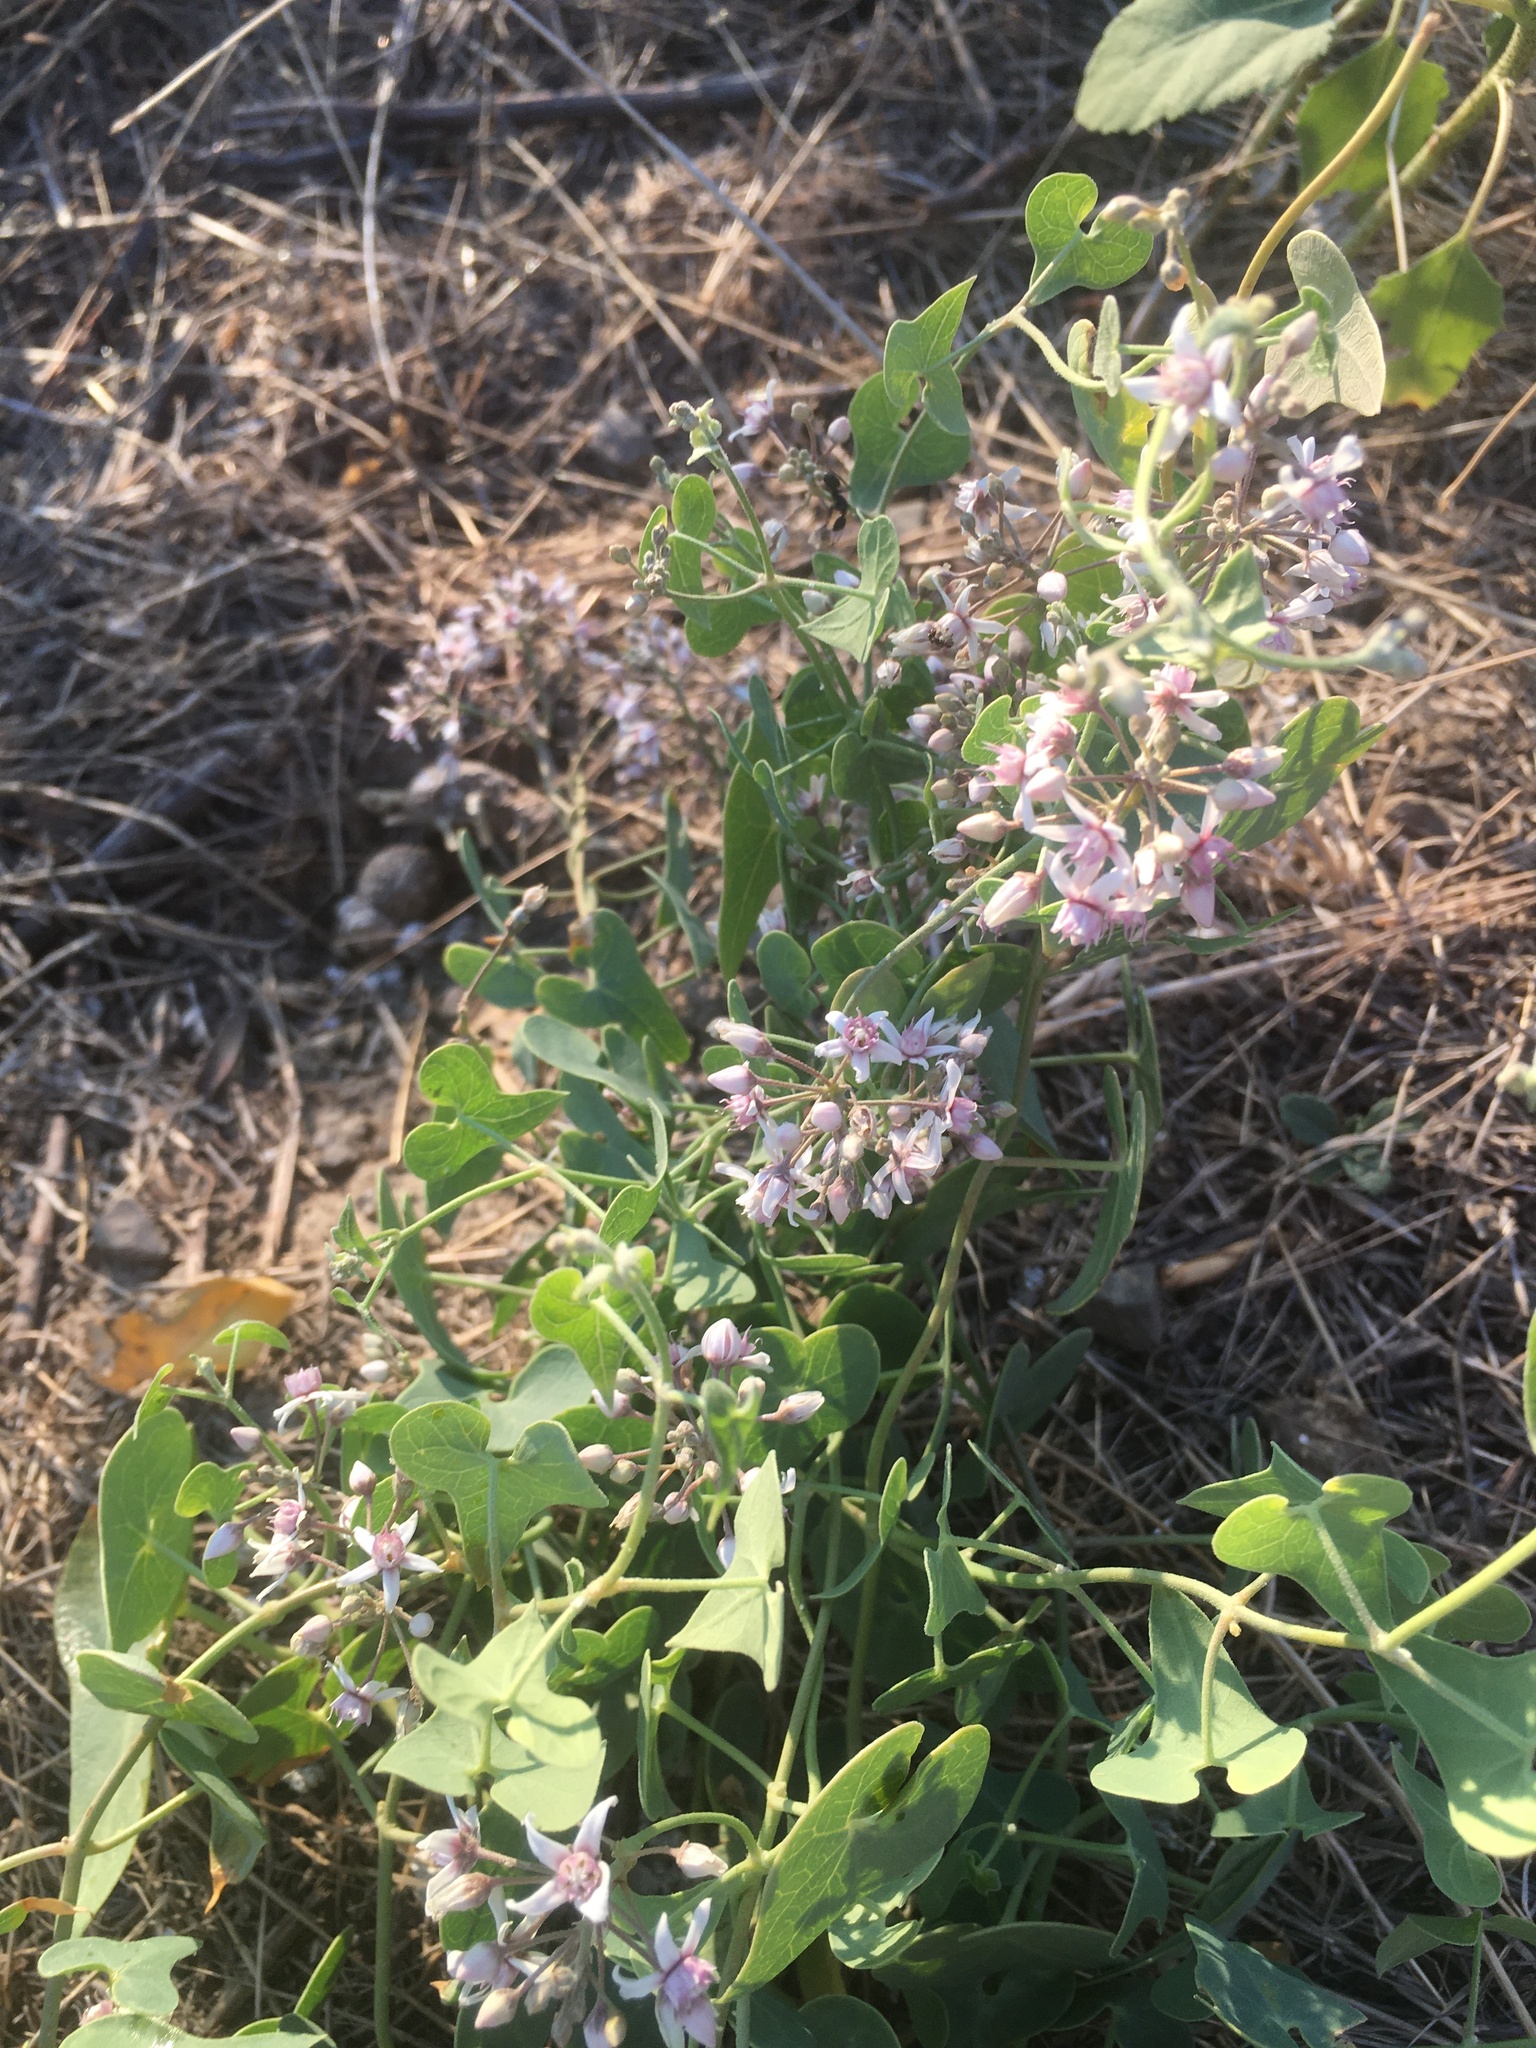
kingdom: Plantae
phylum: Tracheophyta
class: Magnoliopsida
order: Gentianales
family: Apocynaceae
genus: Cynanchum
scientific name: Cynanchum acutum
